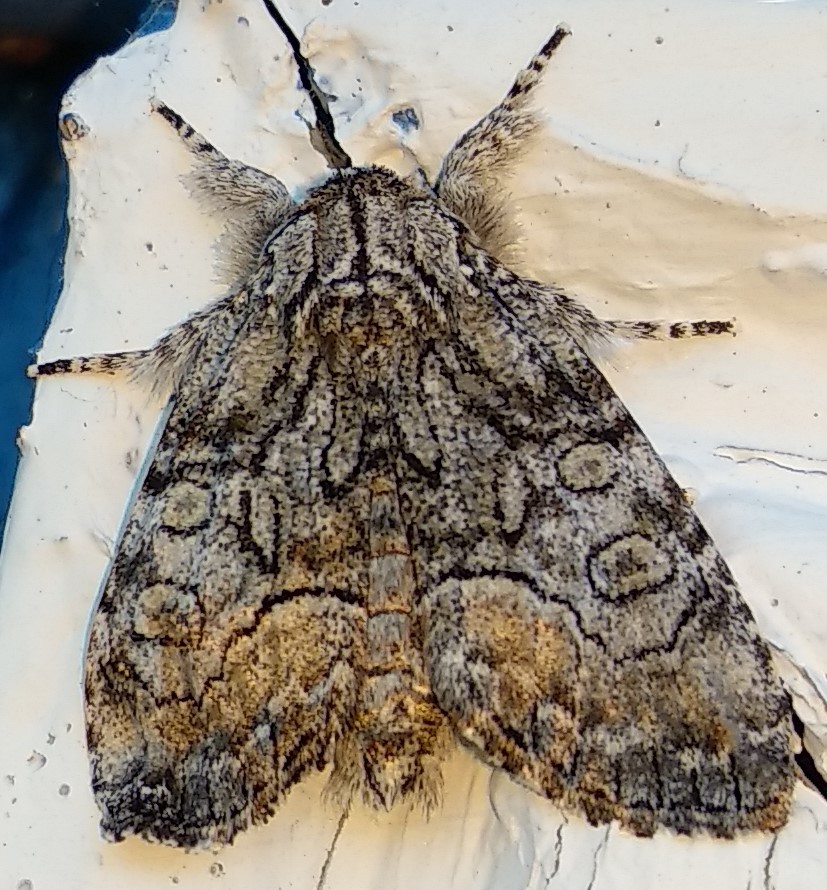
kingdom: Animalia
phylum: Arthropoda
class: Insecta
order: Lepidoptera
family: Noctuidae
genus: Raphia
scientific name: Raphia frater
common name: Brother
